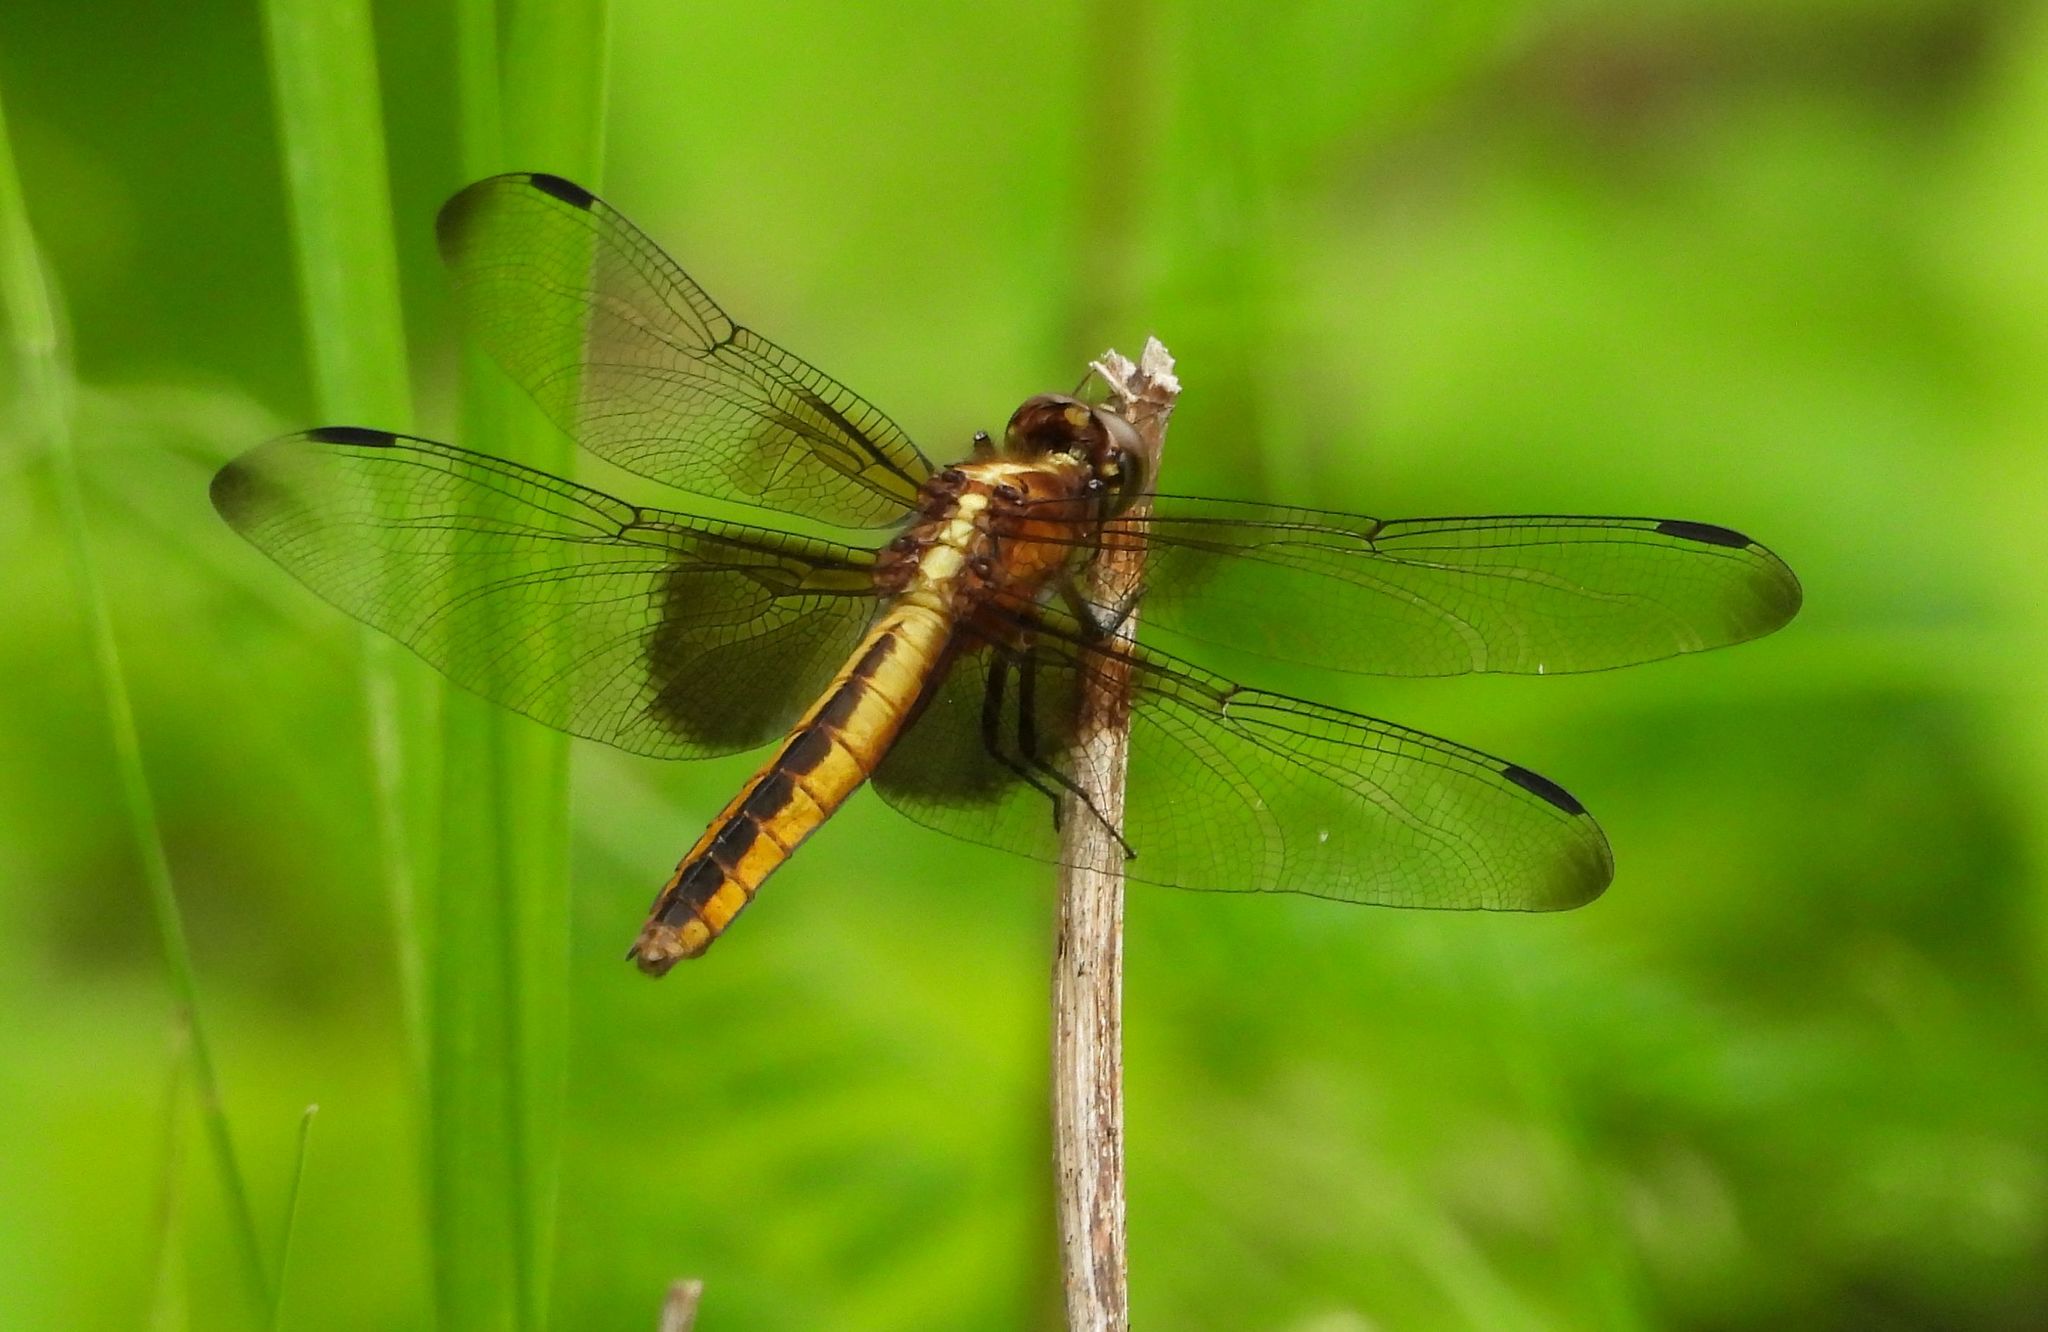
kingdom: Animalia
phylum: Arthropoda
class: Insecta
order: Odonata
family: Libellulidae
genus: Libellula
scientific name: Libellula luctuosa
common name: Widow skimmer
